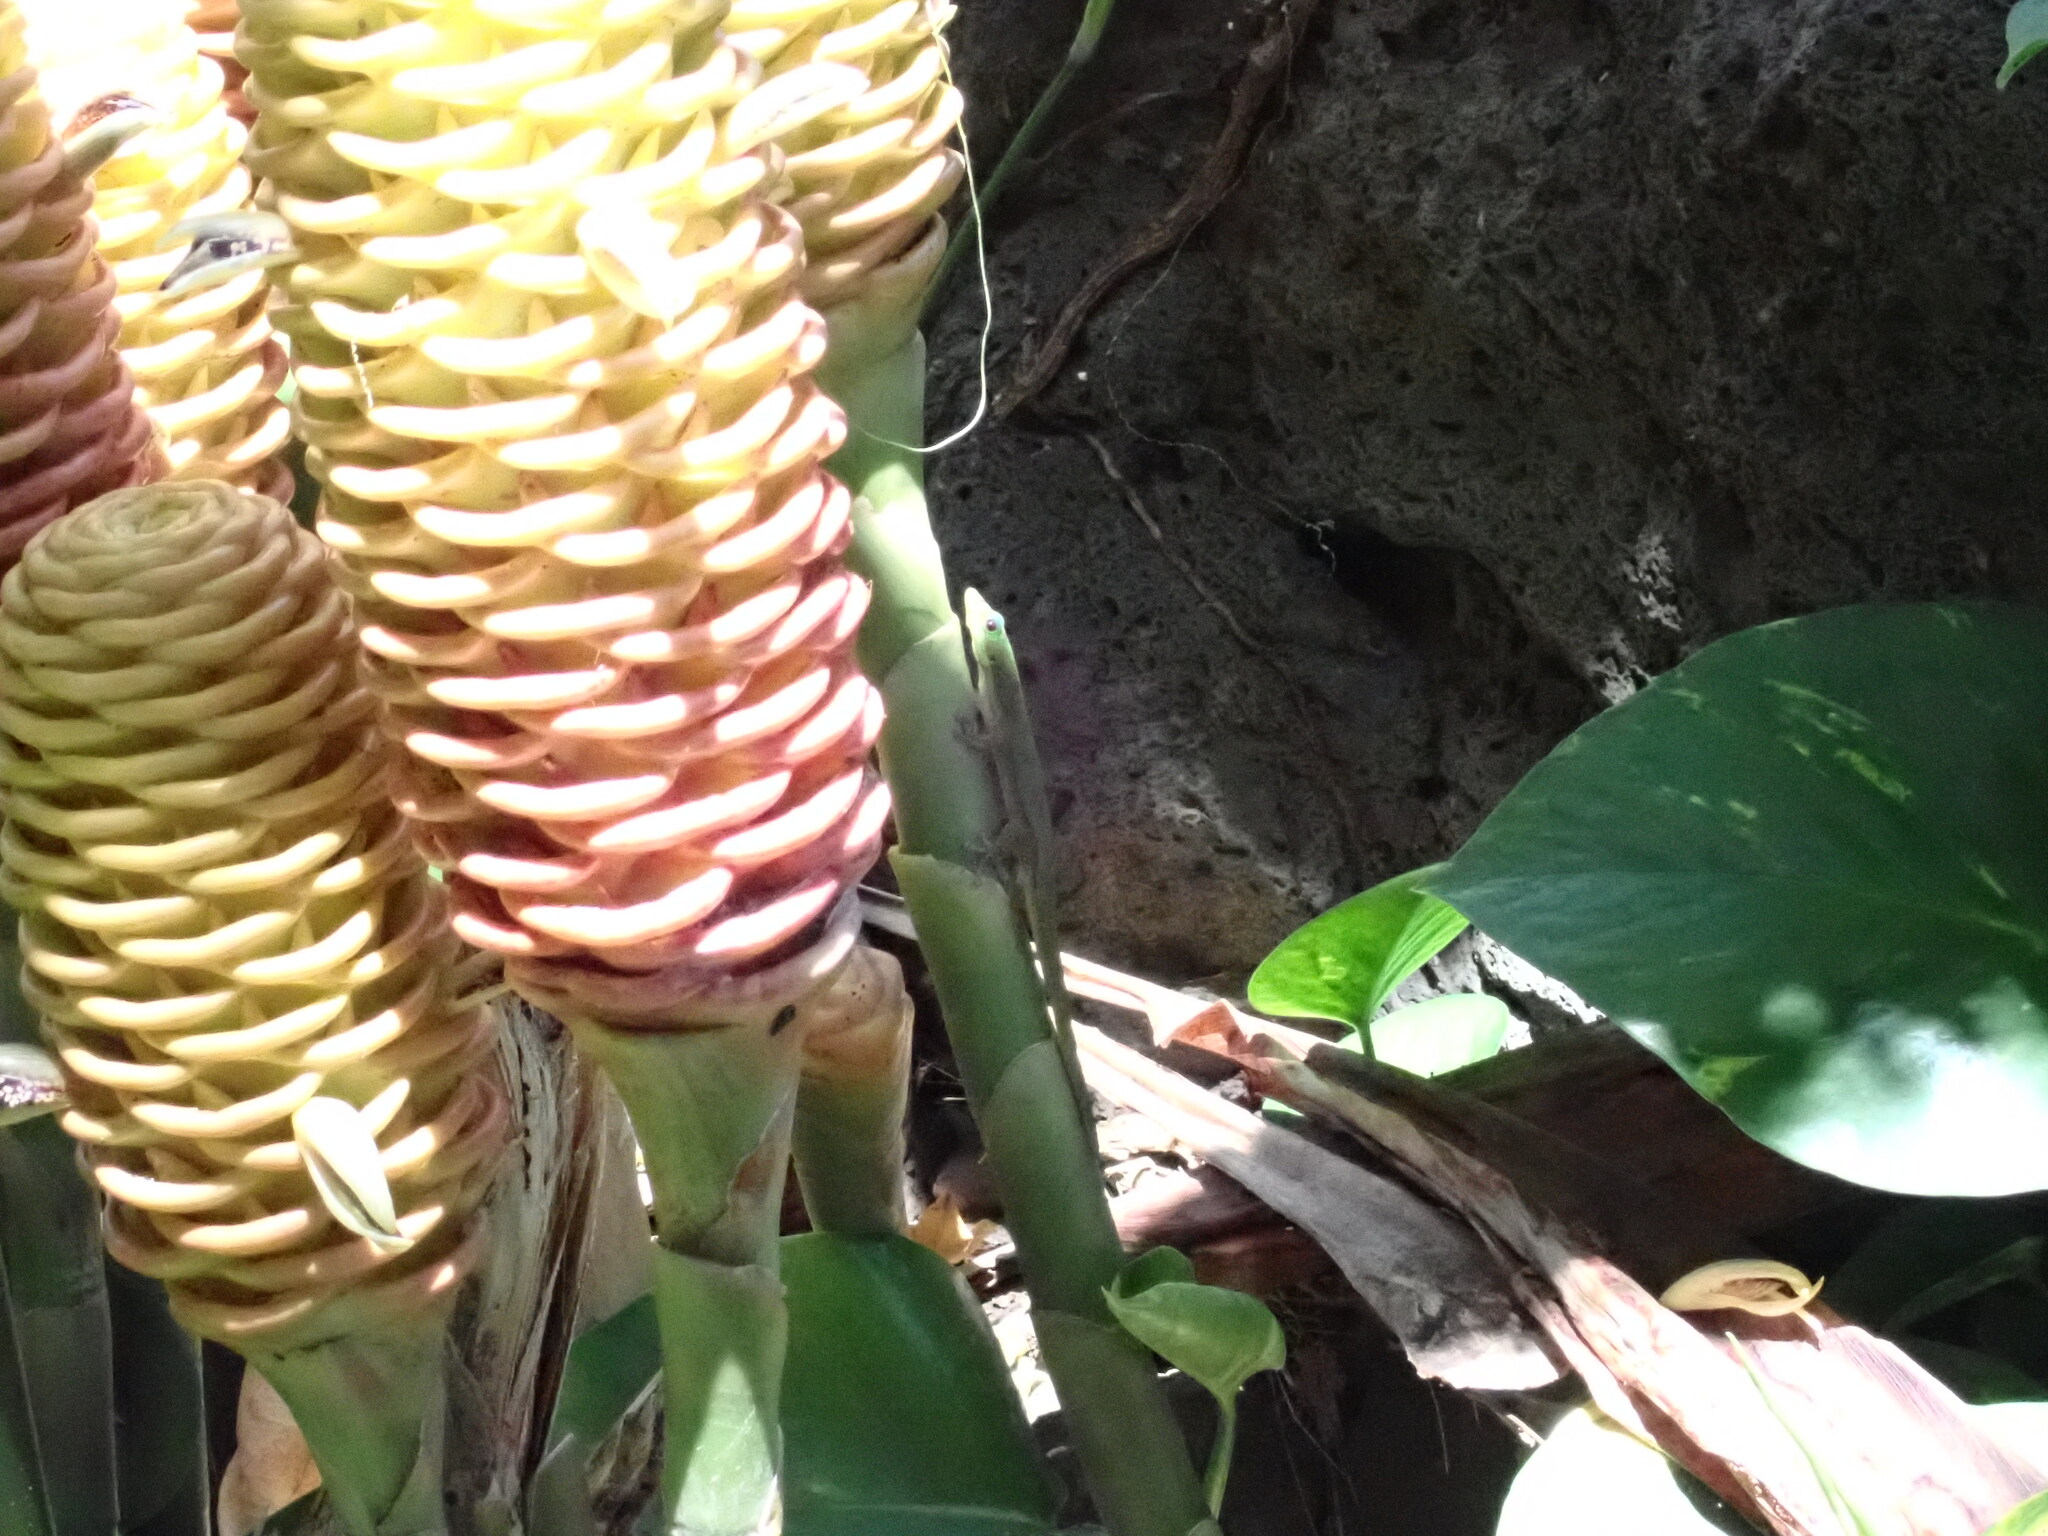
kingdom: Animalia
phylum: Chordata
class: Squamata
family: Gekkonidae
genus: Phelsuma
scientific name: Phelsuma laticauda
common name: Gold dust day gecko
